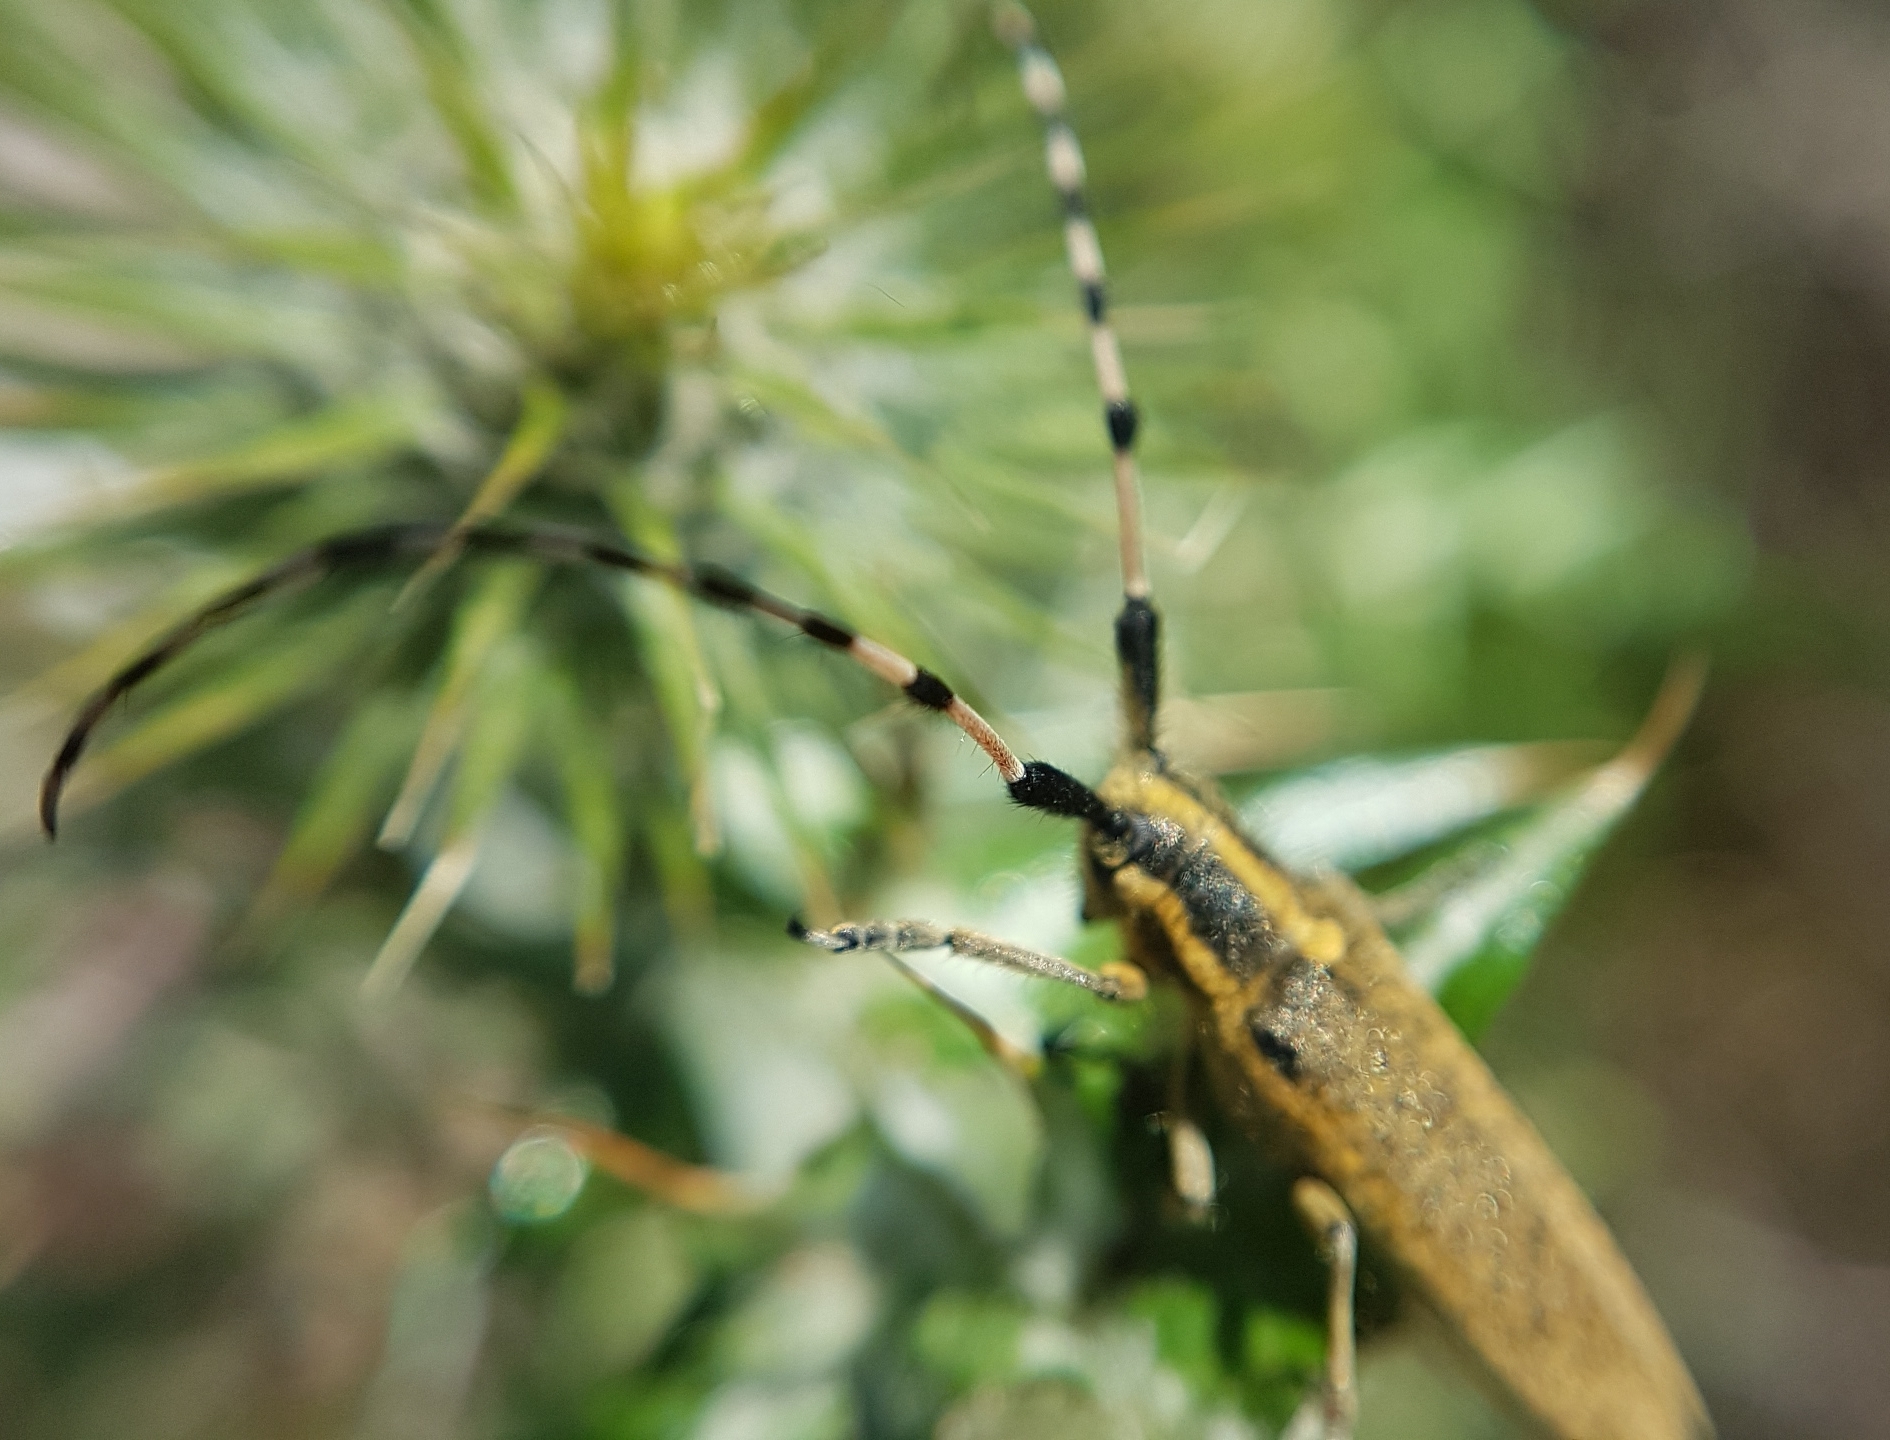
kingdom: Animalia
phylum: Arthropoda
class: Insecta
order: Coleoptera
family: Cerambycidae
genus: Agapanthia
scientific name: Agapanthia dahlii
